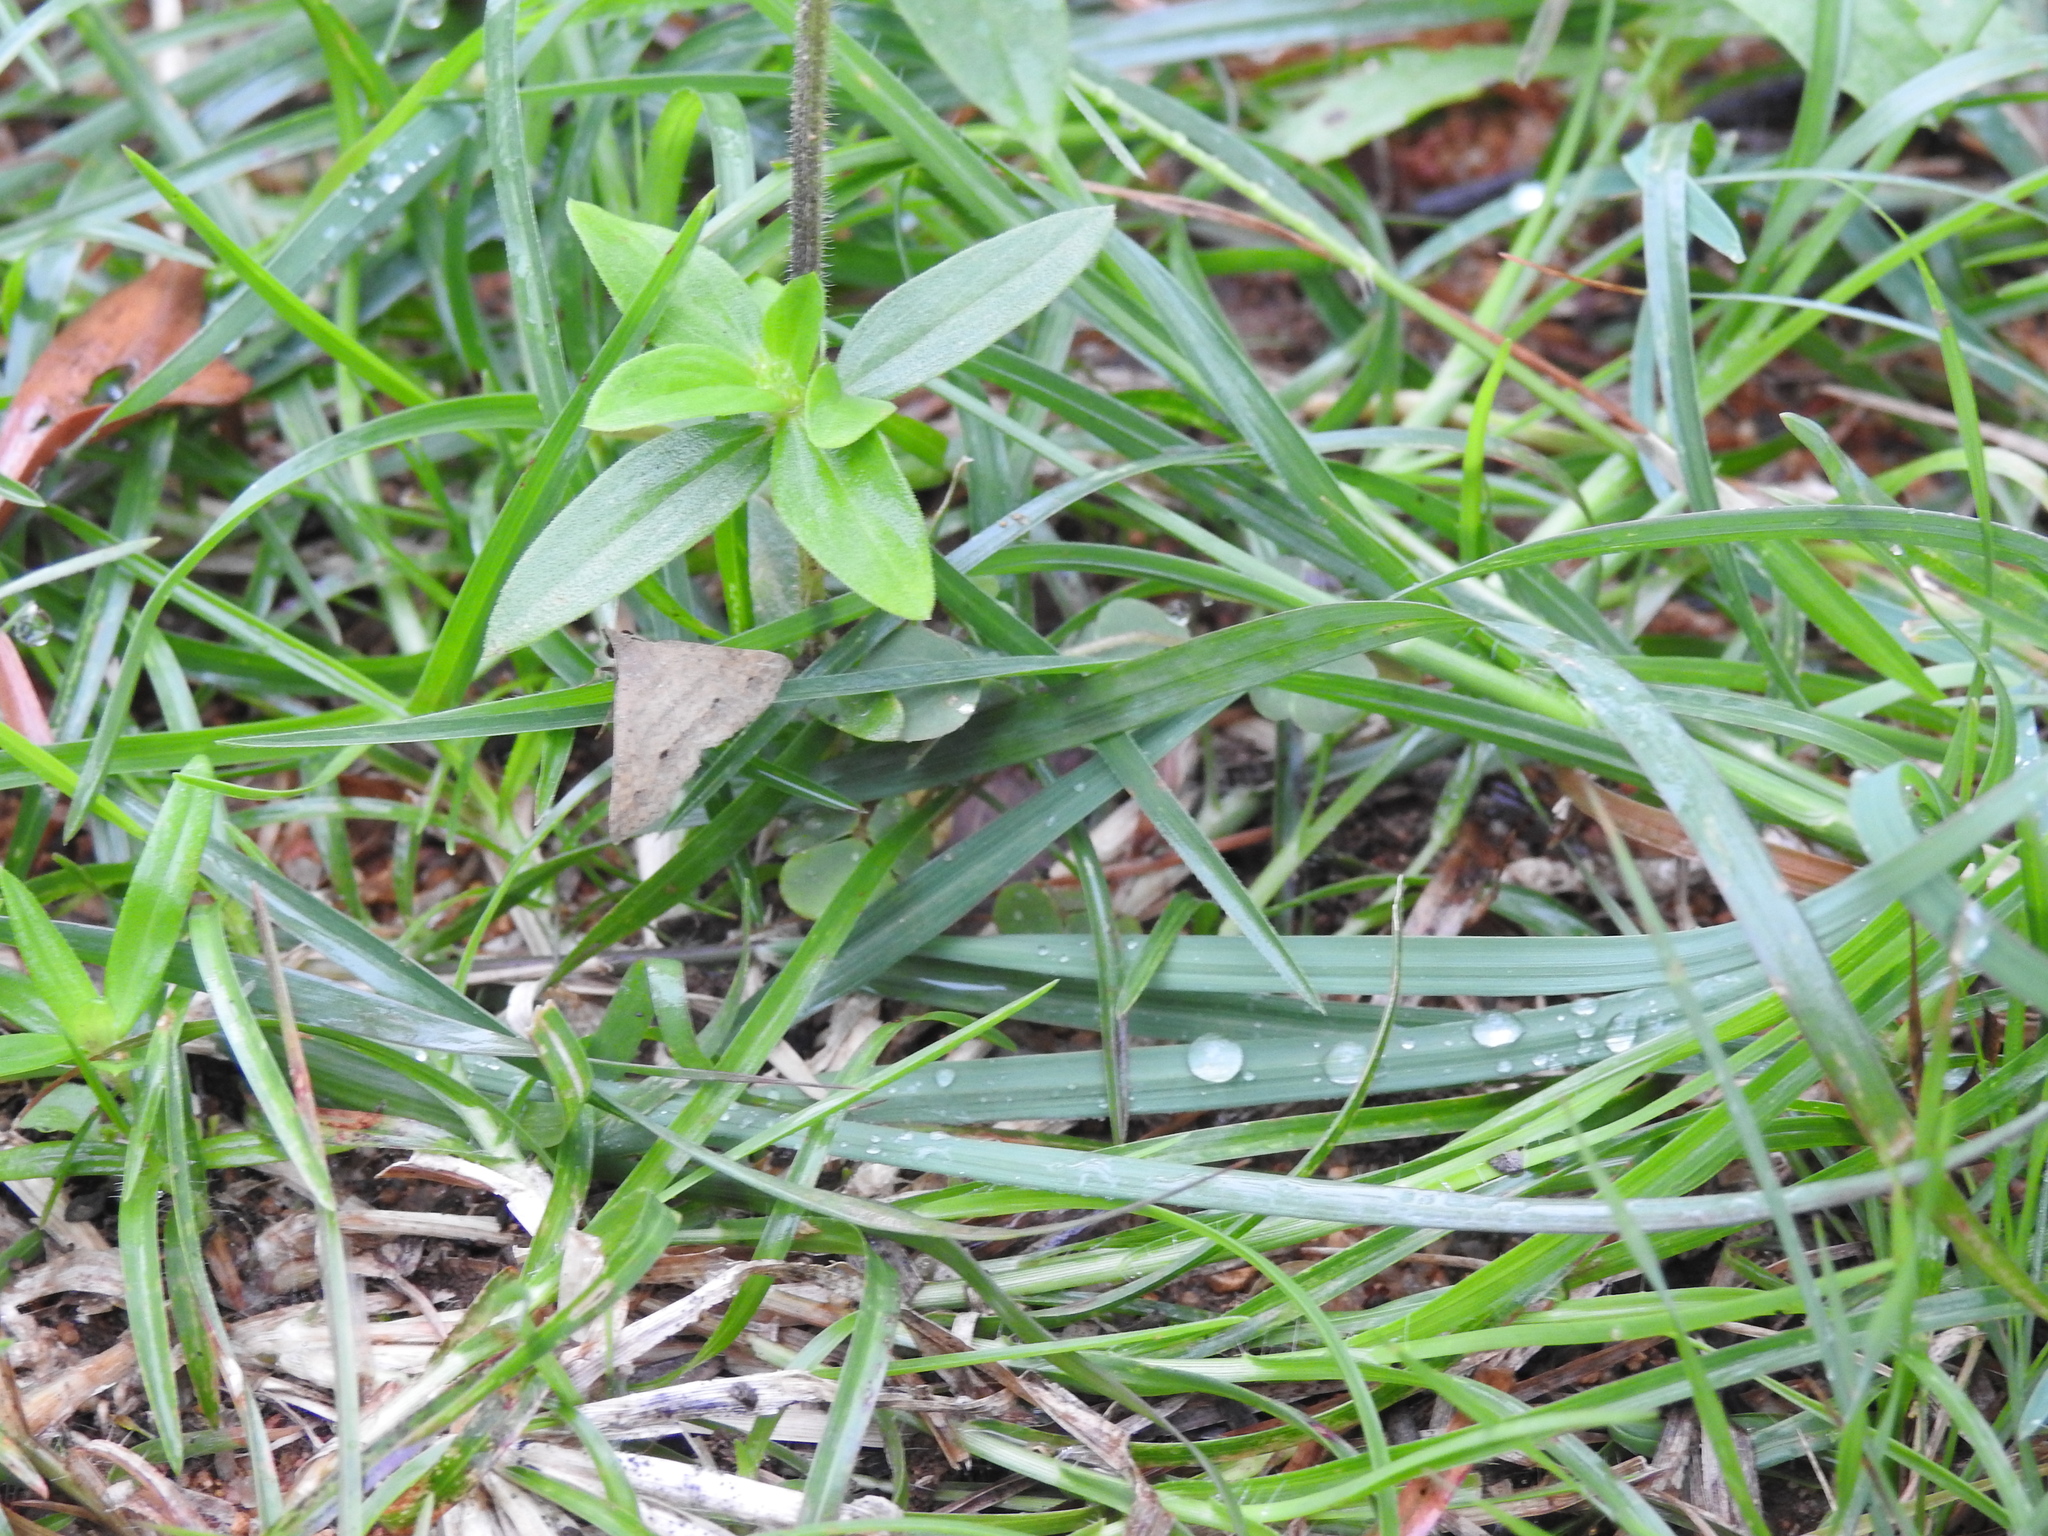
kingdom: Animalia
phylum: Arthropoda
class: Insecta
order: Lepidoptera
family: Erebidae
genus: Gesonia
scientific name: Gesonia obeditalis
